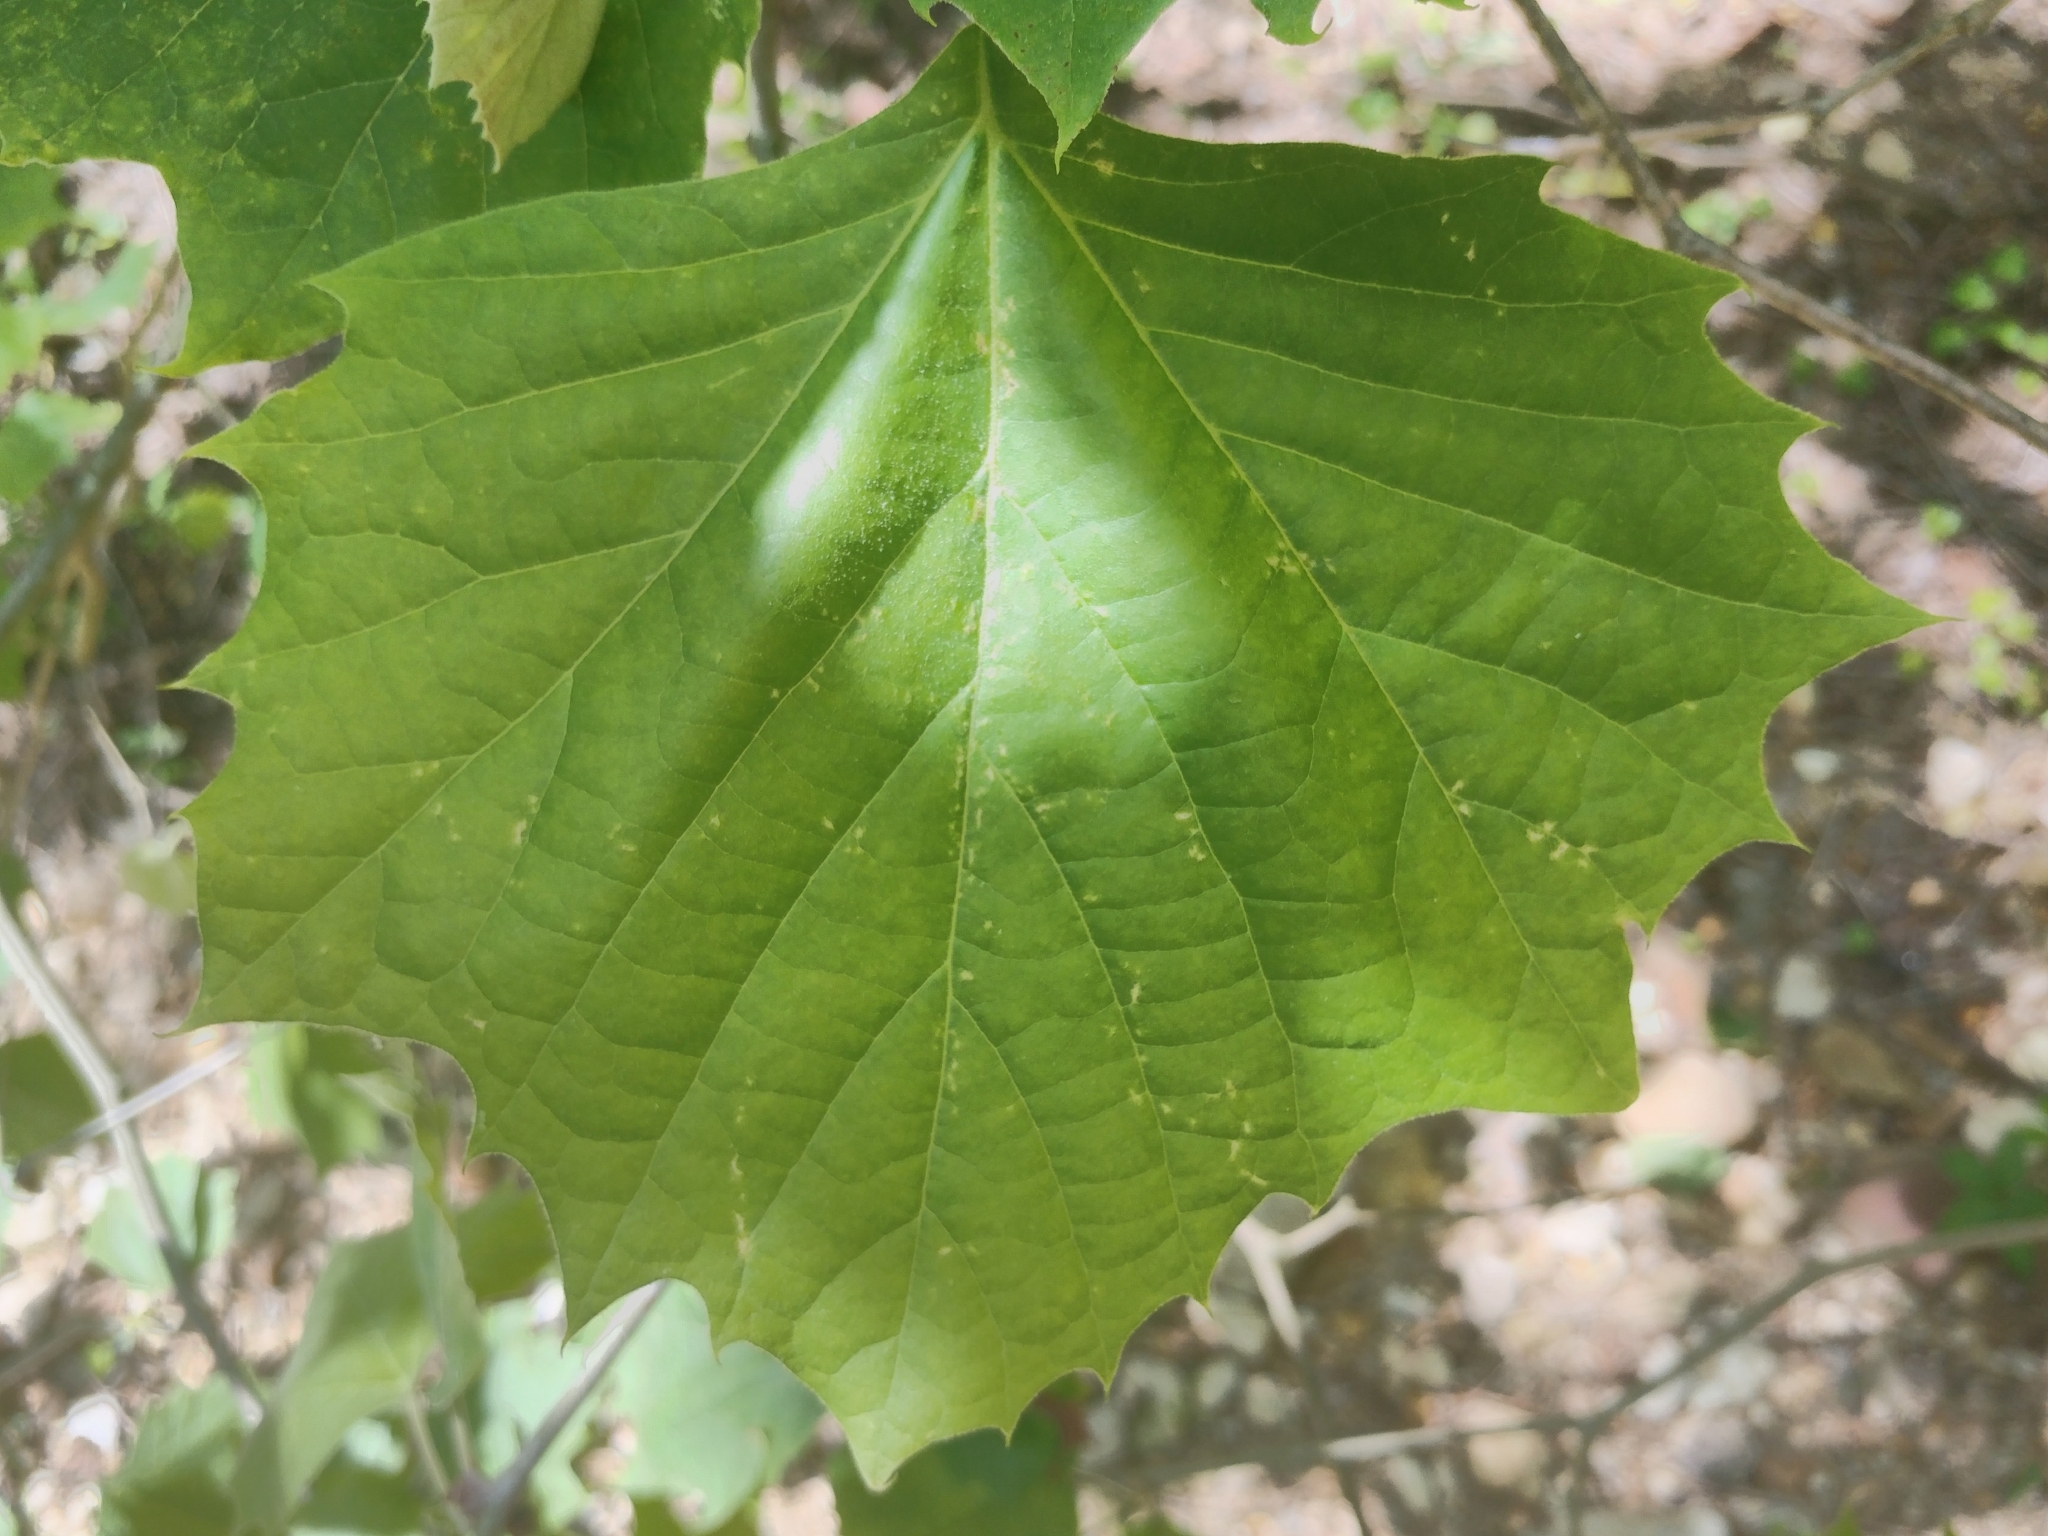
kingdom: Plantae
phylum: Tracheophyta
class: Magnoliopsida
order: Proteales
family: Platanaceae
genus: Platanus
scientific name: Platanus occidentalis
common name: American sycamore
